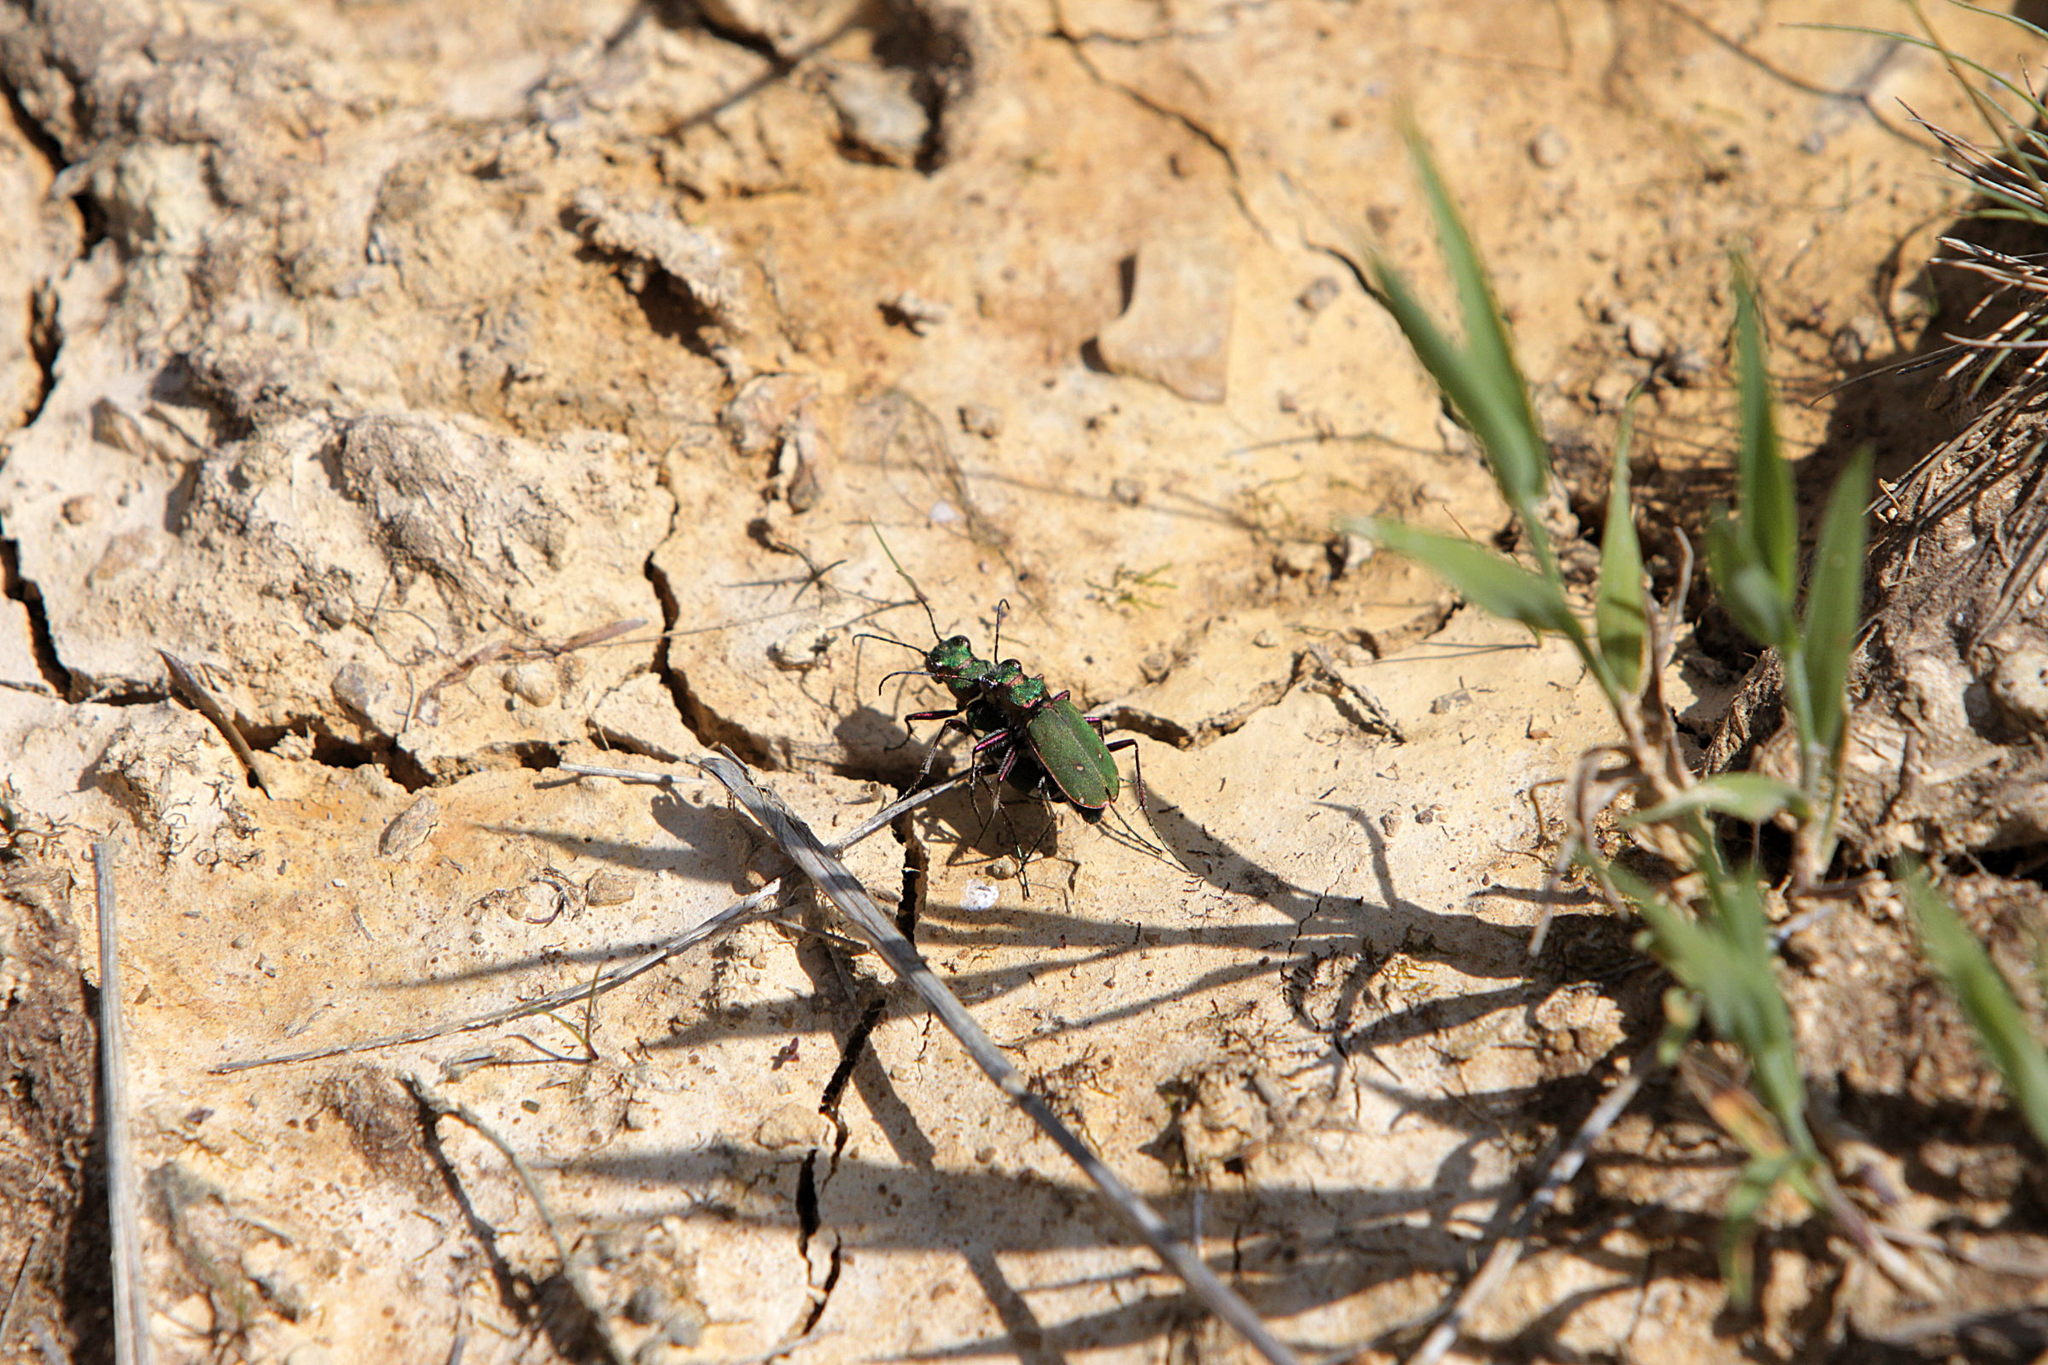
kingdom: Animalia
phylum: Arthropoda
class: Insecta
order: Coleoptera
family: Carabidae
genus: Cicindela
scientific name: Cicindela campestris
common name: Common tiger beetle
